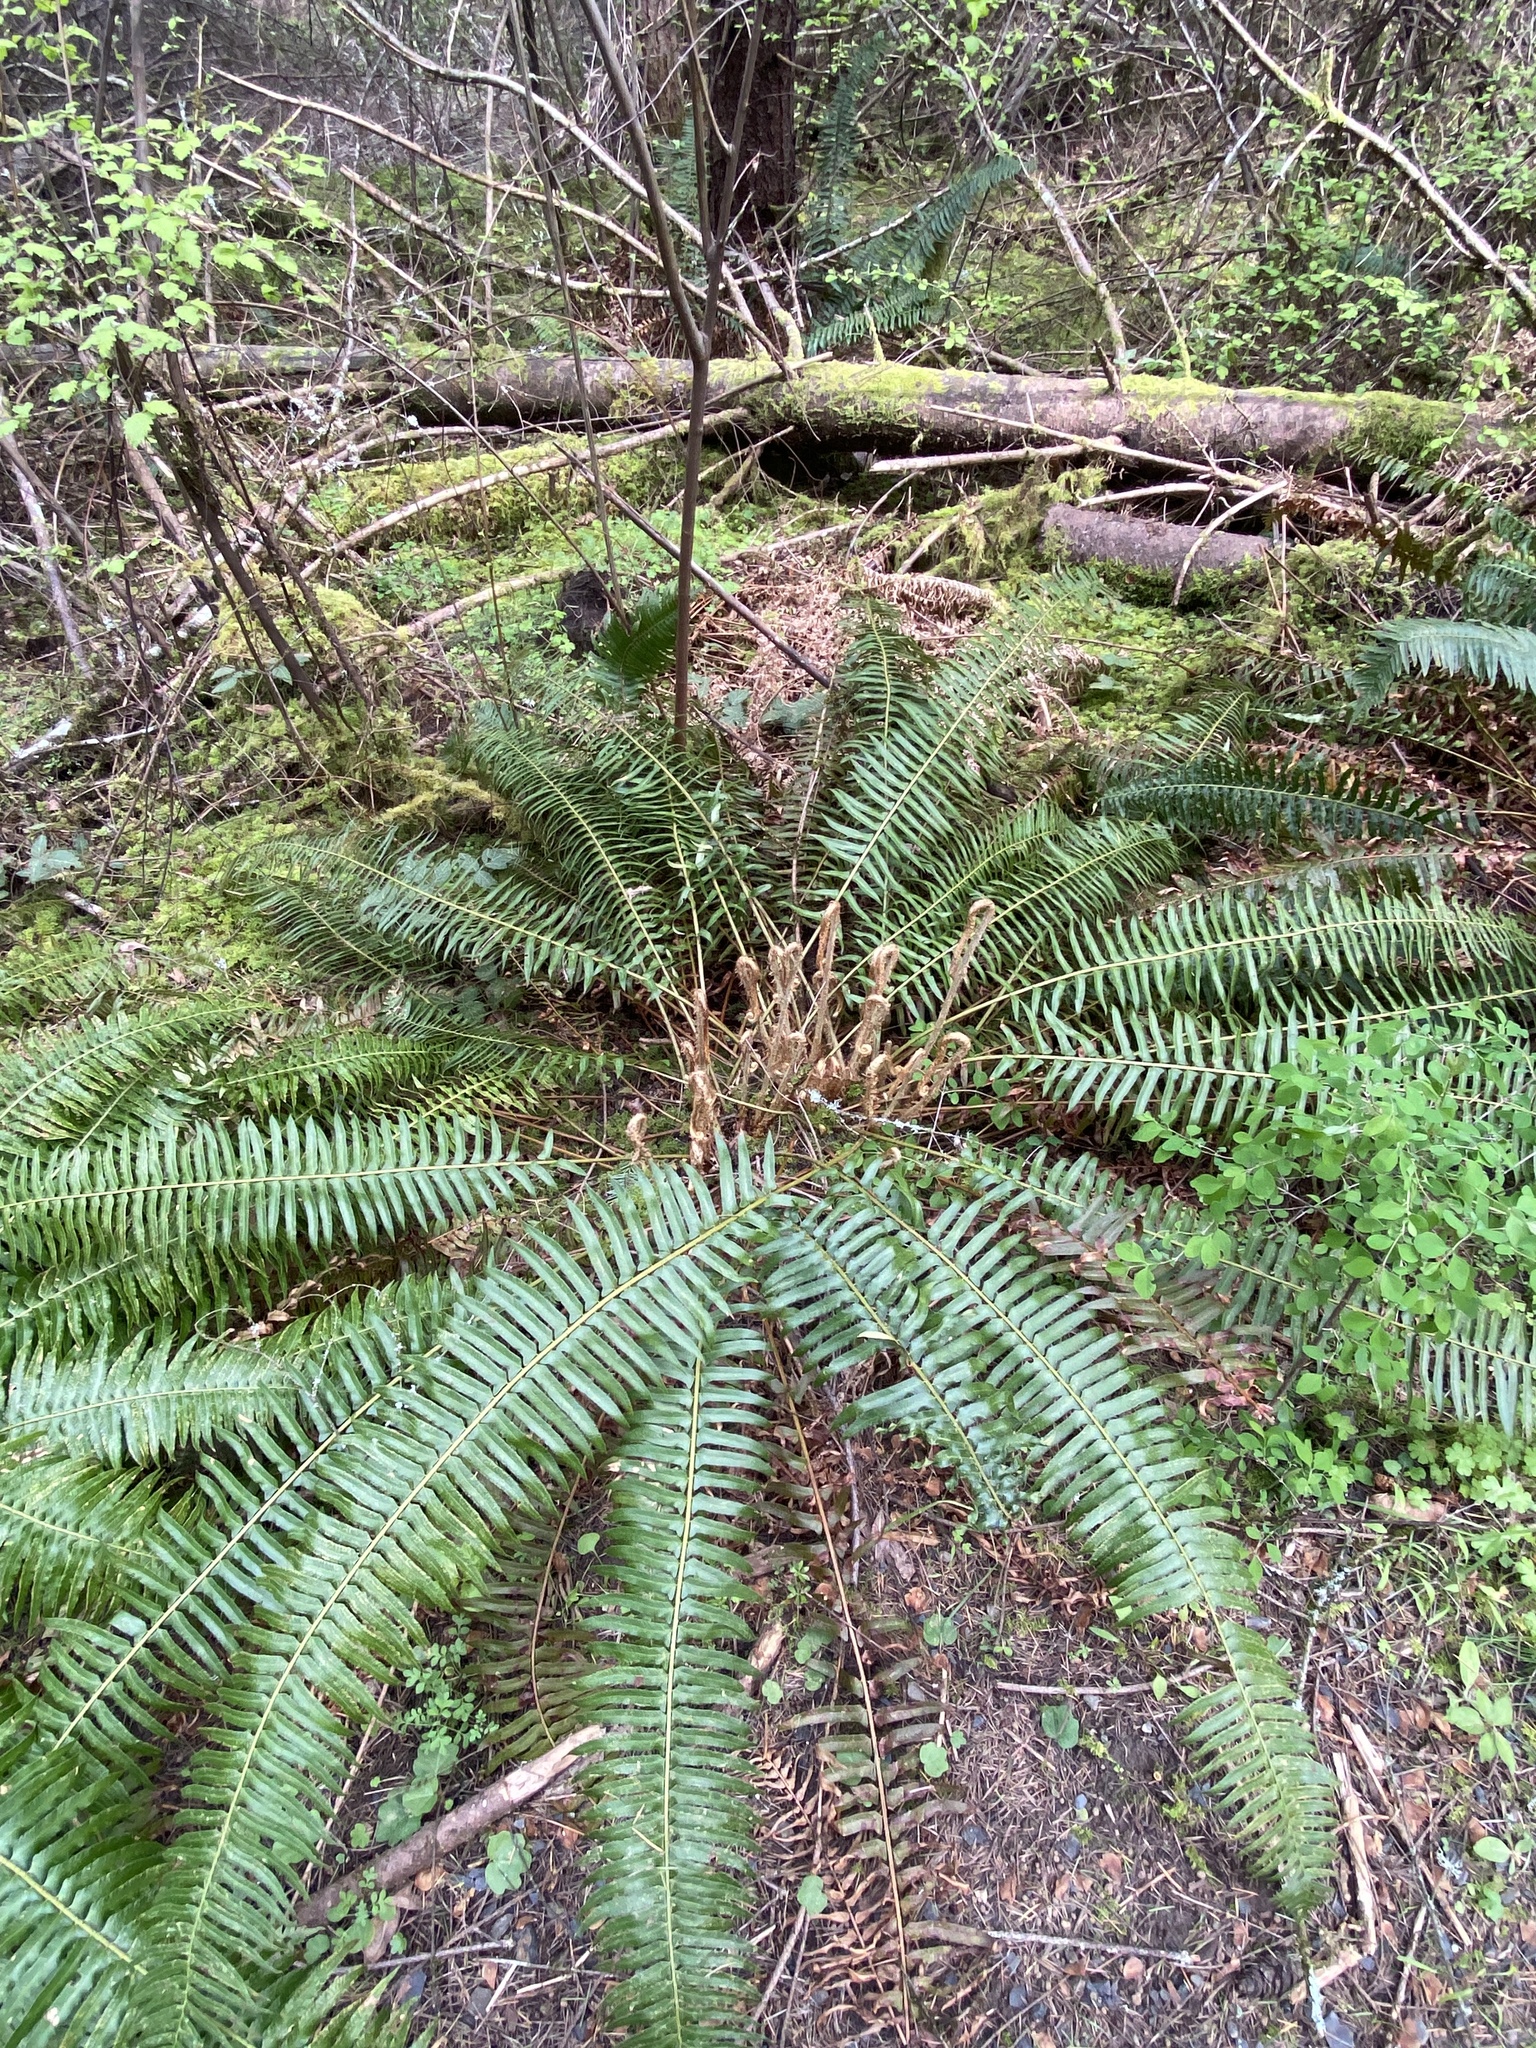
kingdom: Plantae
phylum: Tracheophyta
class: Polypodiopsida
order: Polypodiales
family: Dryopteridaceae
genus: Polystichum
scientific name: Polystichum munitum
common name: Western sword-fern
